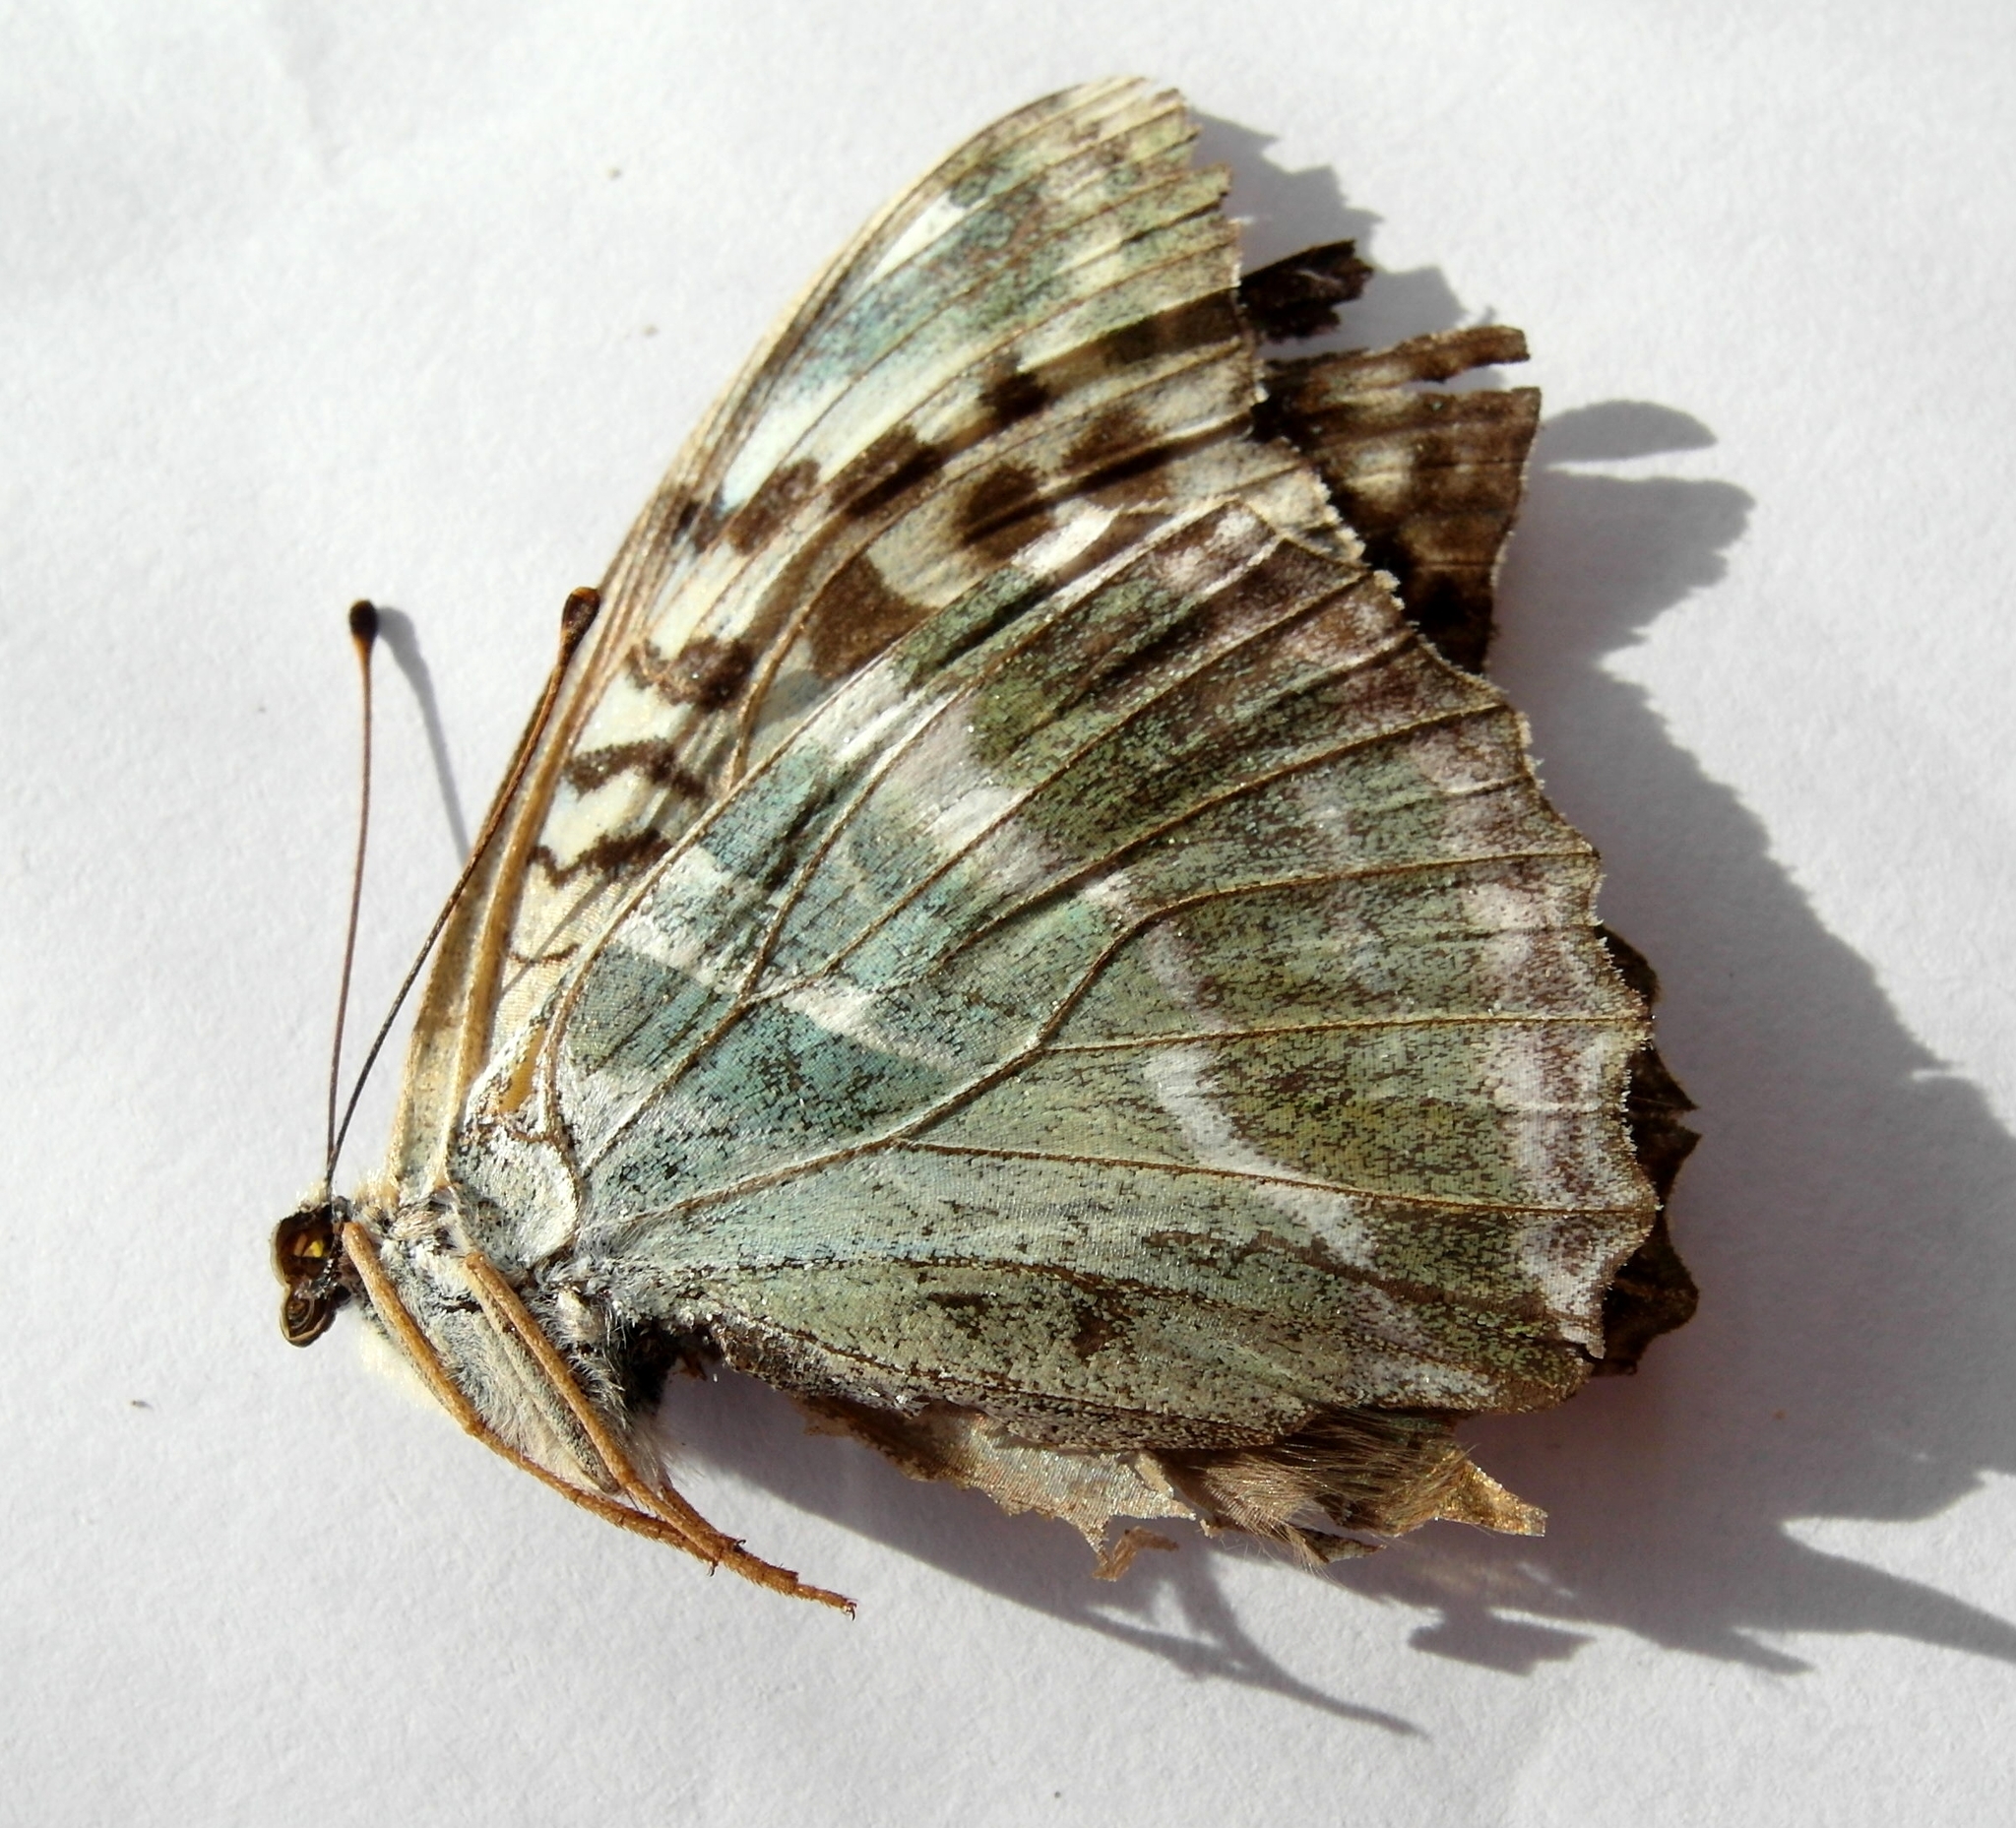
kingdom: Animalia
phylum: Arthropoda
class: Insecta
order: Lepidoptera
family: Nymphalidae
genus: Argynnis
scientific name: Argynnis paphia
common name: Silver-washed fritillary
